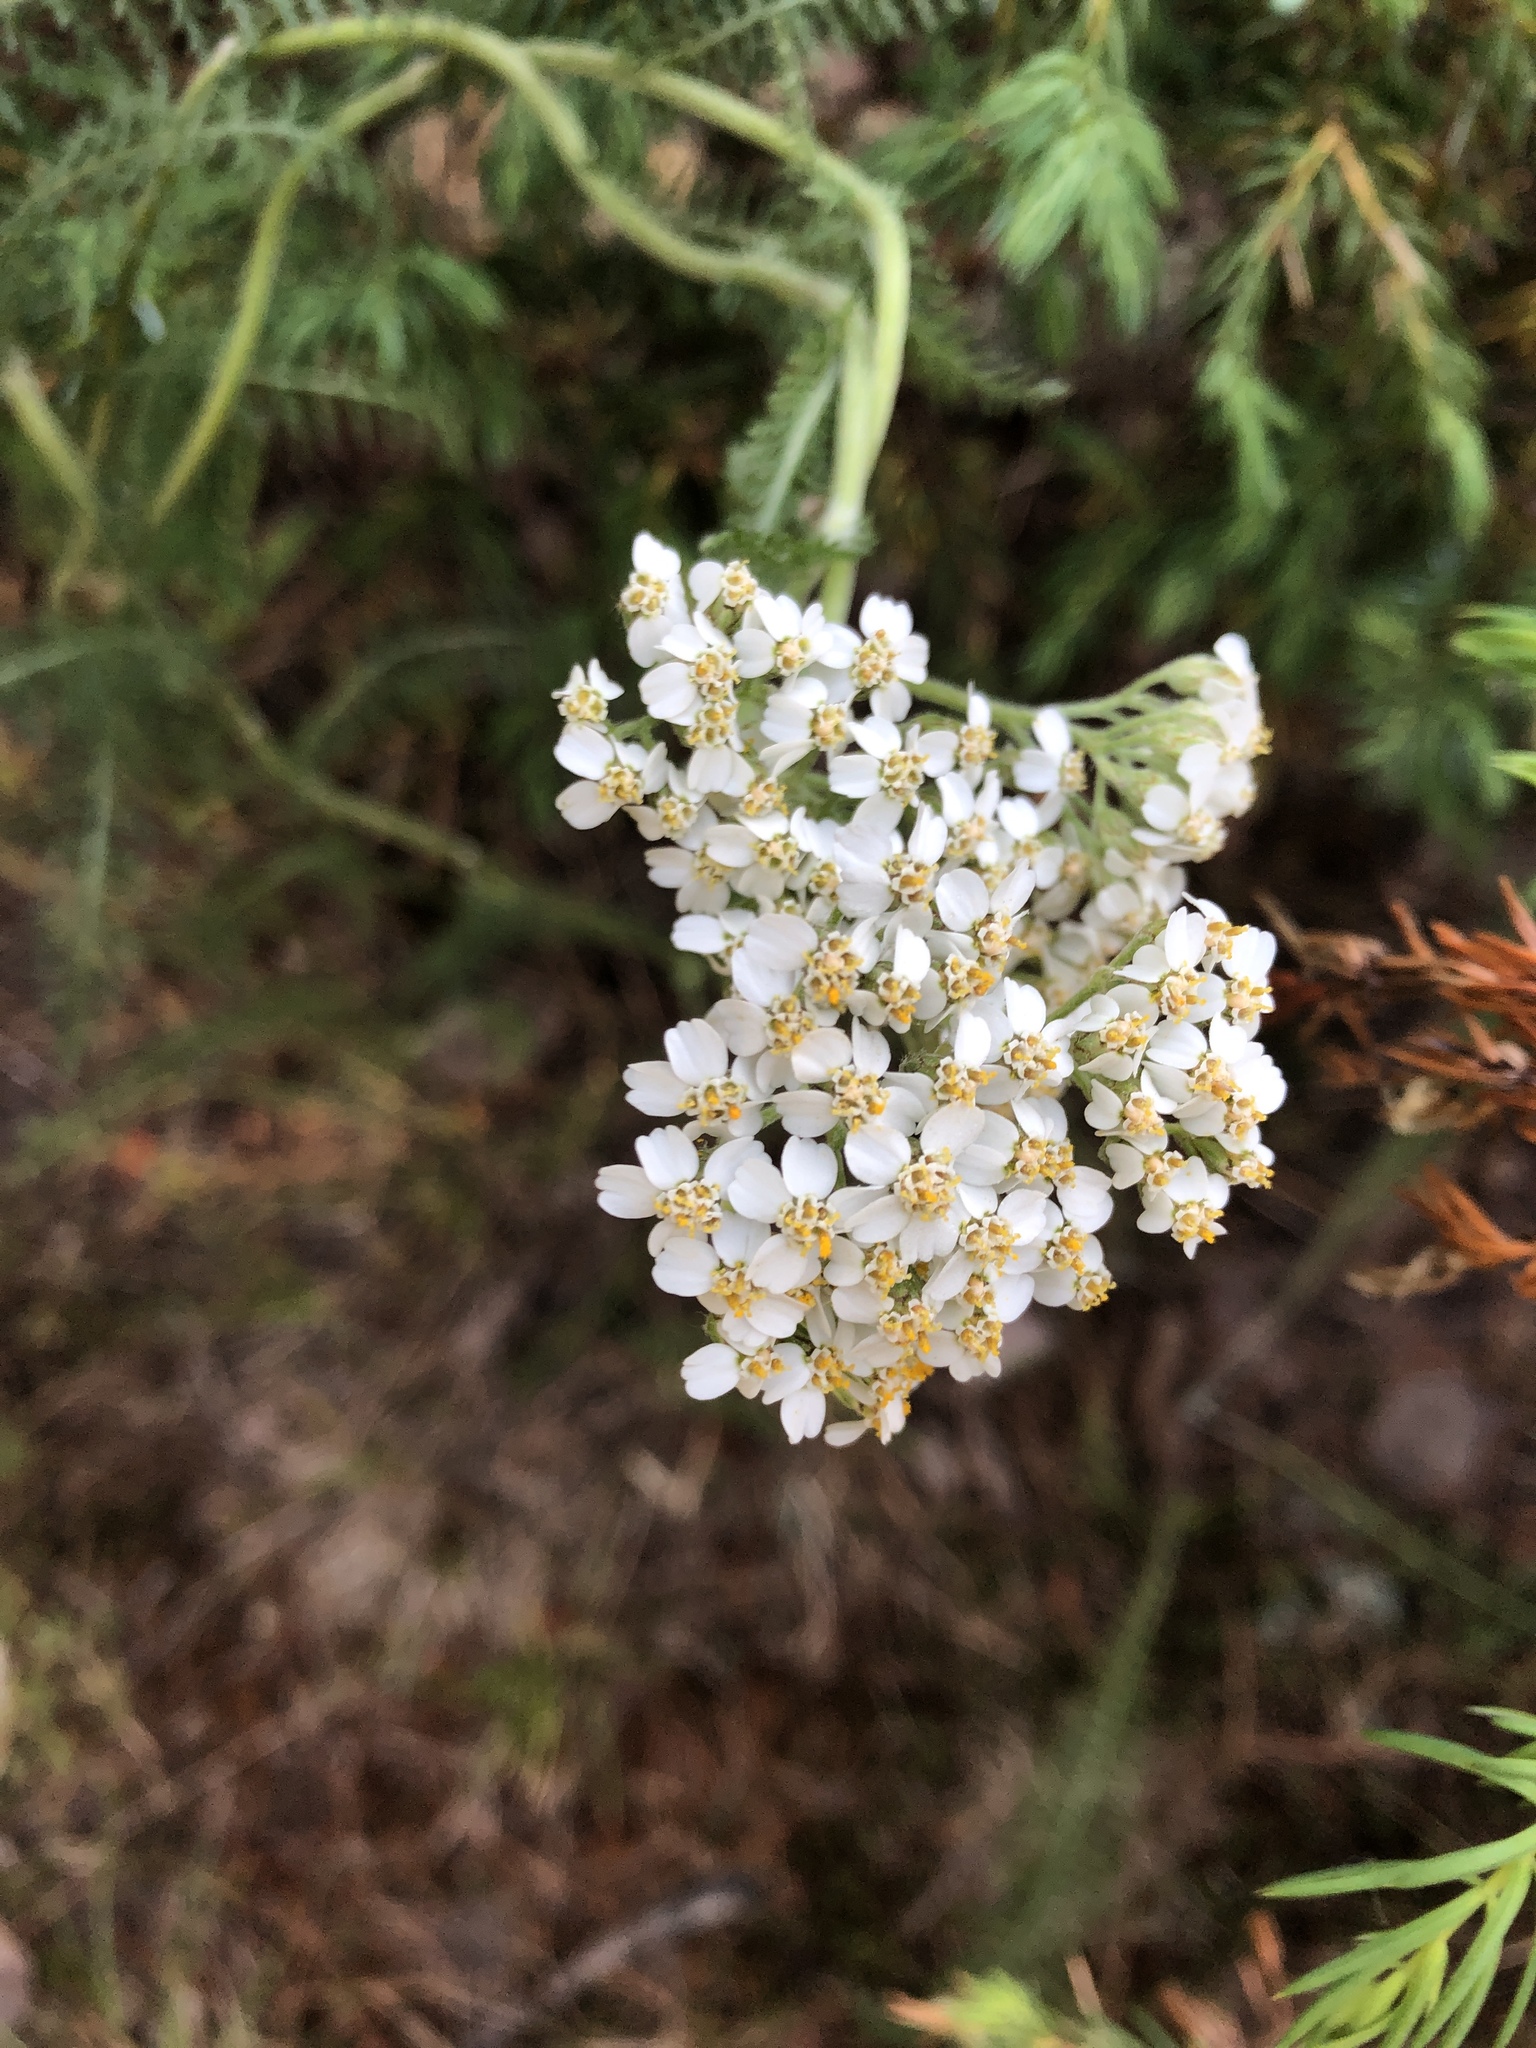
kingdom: Plantae
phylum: Tracheophyta
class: Magnoliopsida
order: Asterales
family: Asteraceae
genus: Achillea
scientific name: Achillea millefolium
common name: Yarrow
